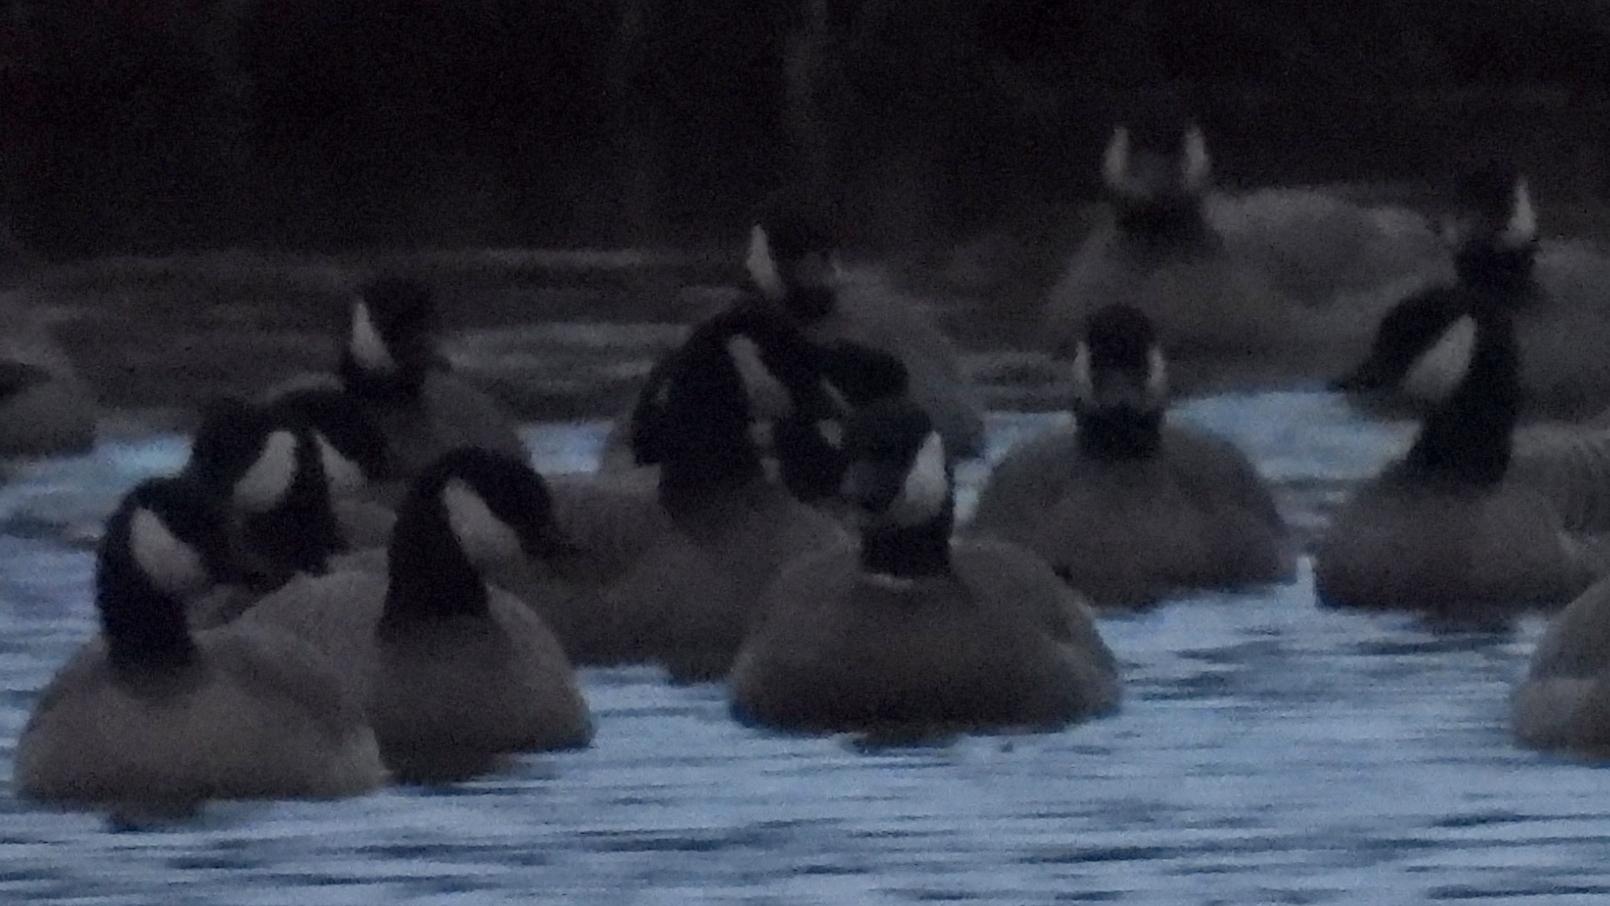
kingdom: Animalia
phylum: Chordata
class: Aves
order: Anseriformes
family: Anatidae
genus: Branta
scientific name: Branta hutchinsii
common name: Cackling goose
